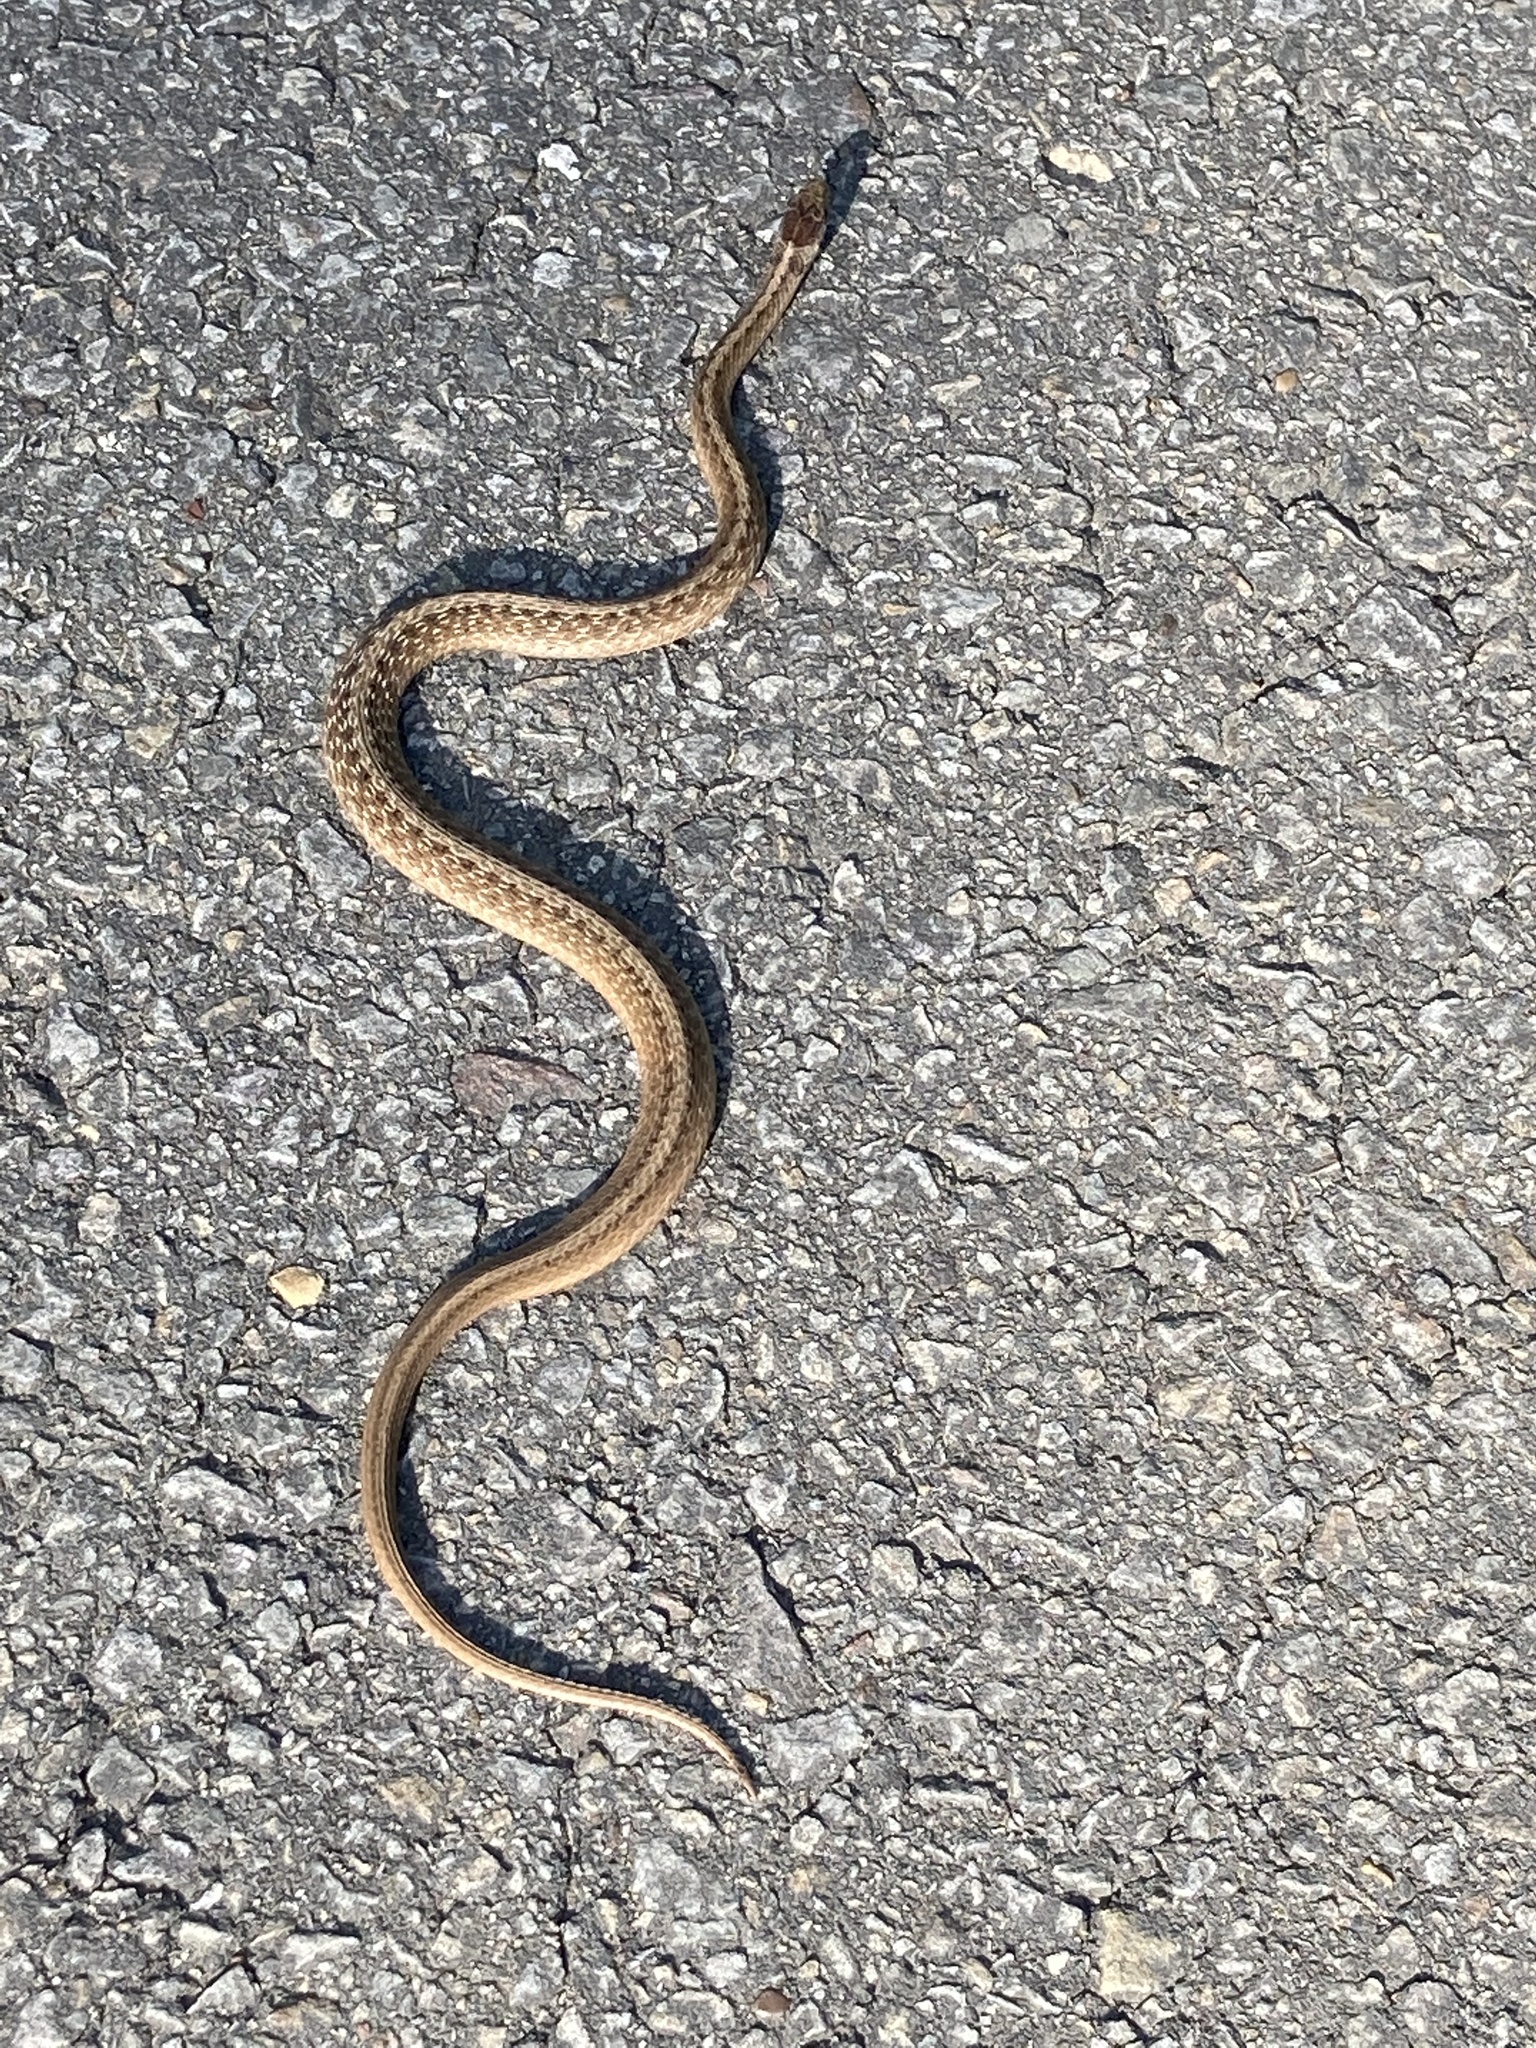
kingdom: Animalia
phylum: Chordata
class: Squamata
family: Colubridae
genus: Storeria
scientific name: Storeria dekayi
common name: (dekay’s) brown snake
